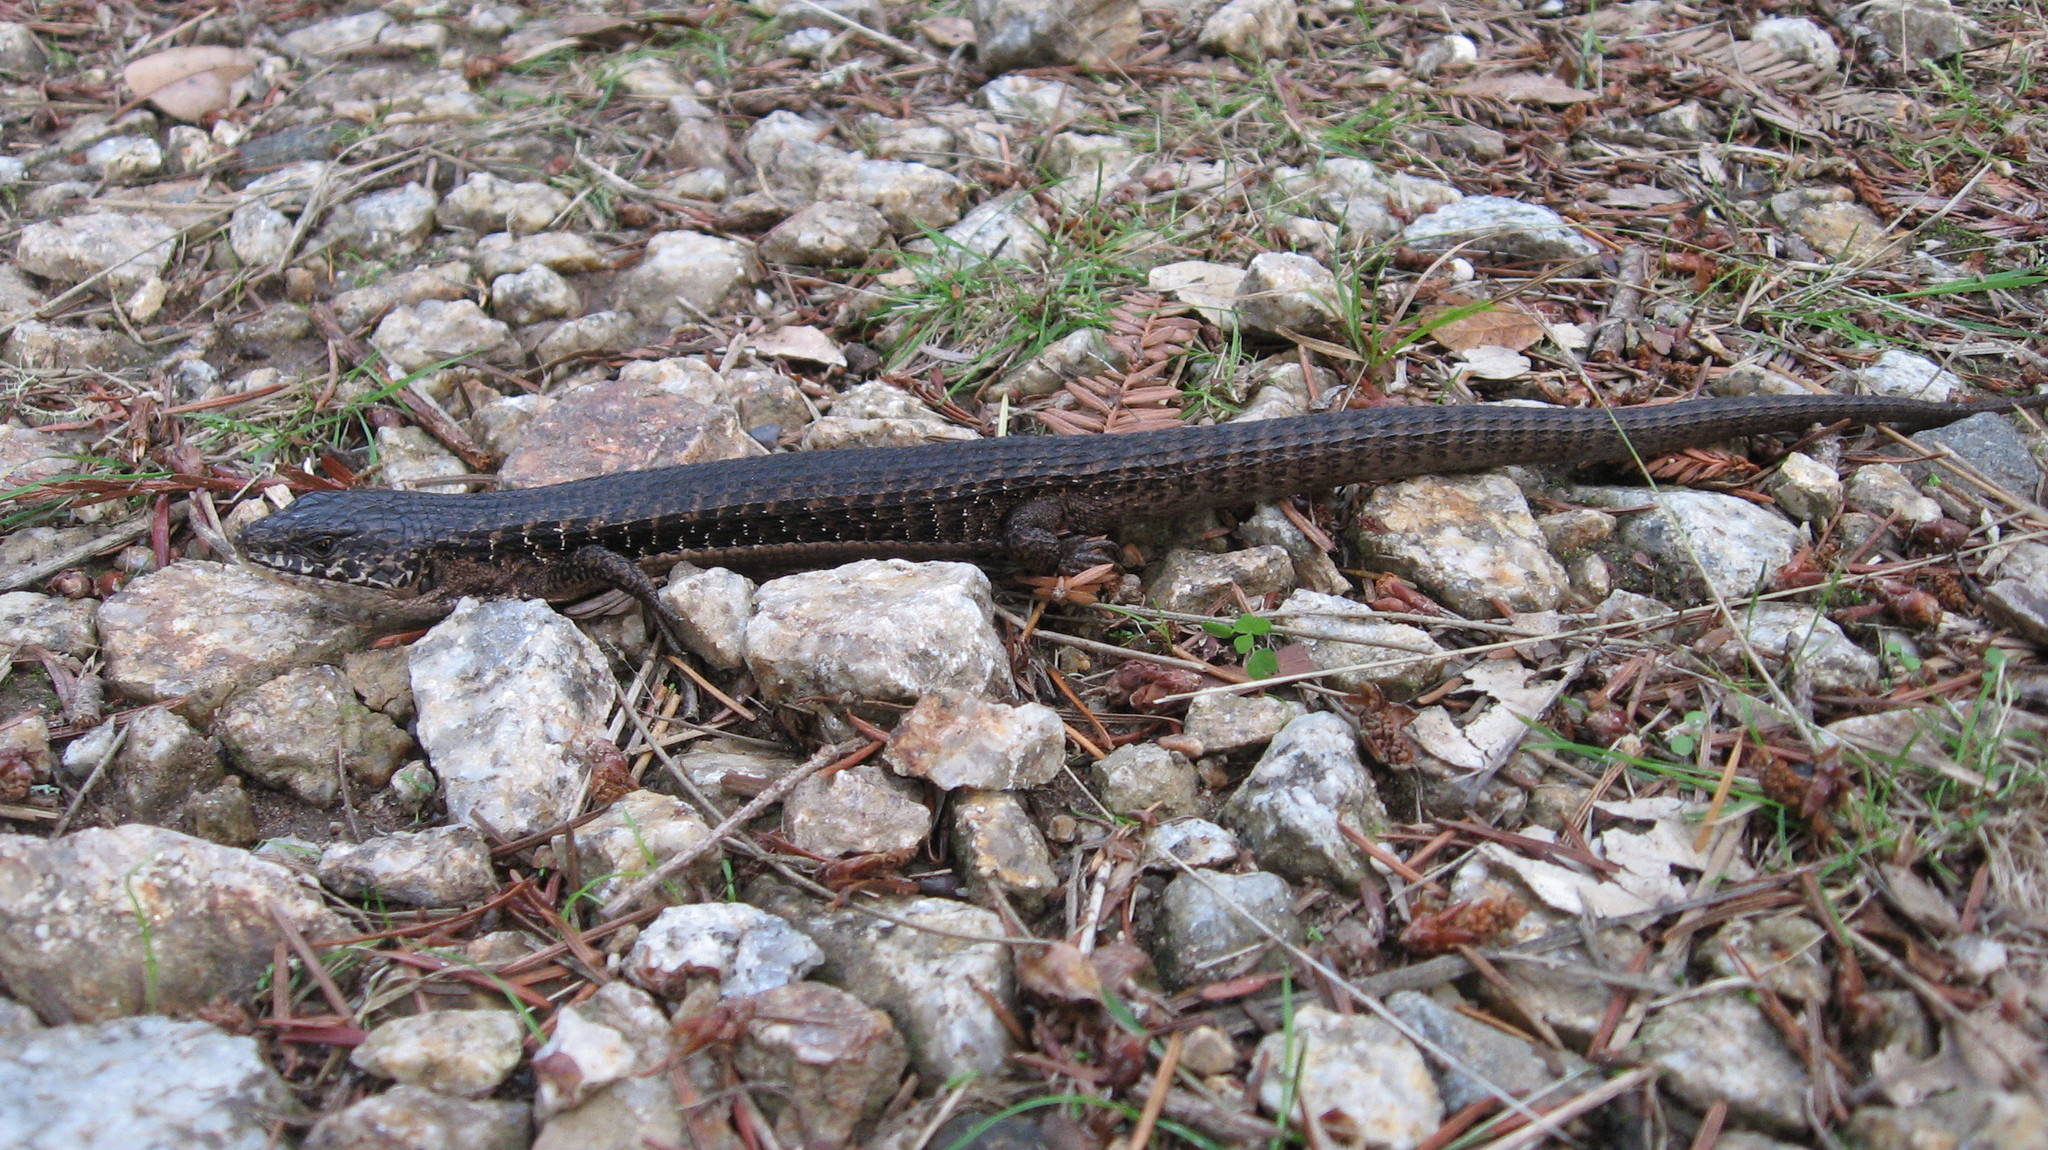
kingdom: Animalia
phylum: Chordata
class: Squamata
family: Anguidae
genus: Elgaria
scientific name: Elgaria coerulea
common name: Northern alligator lizard
